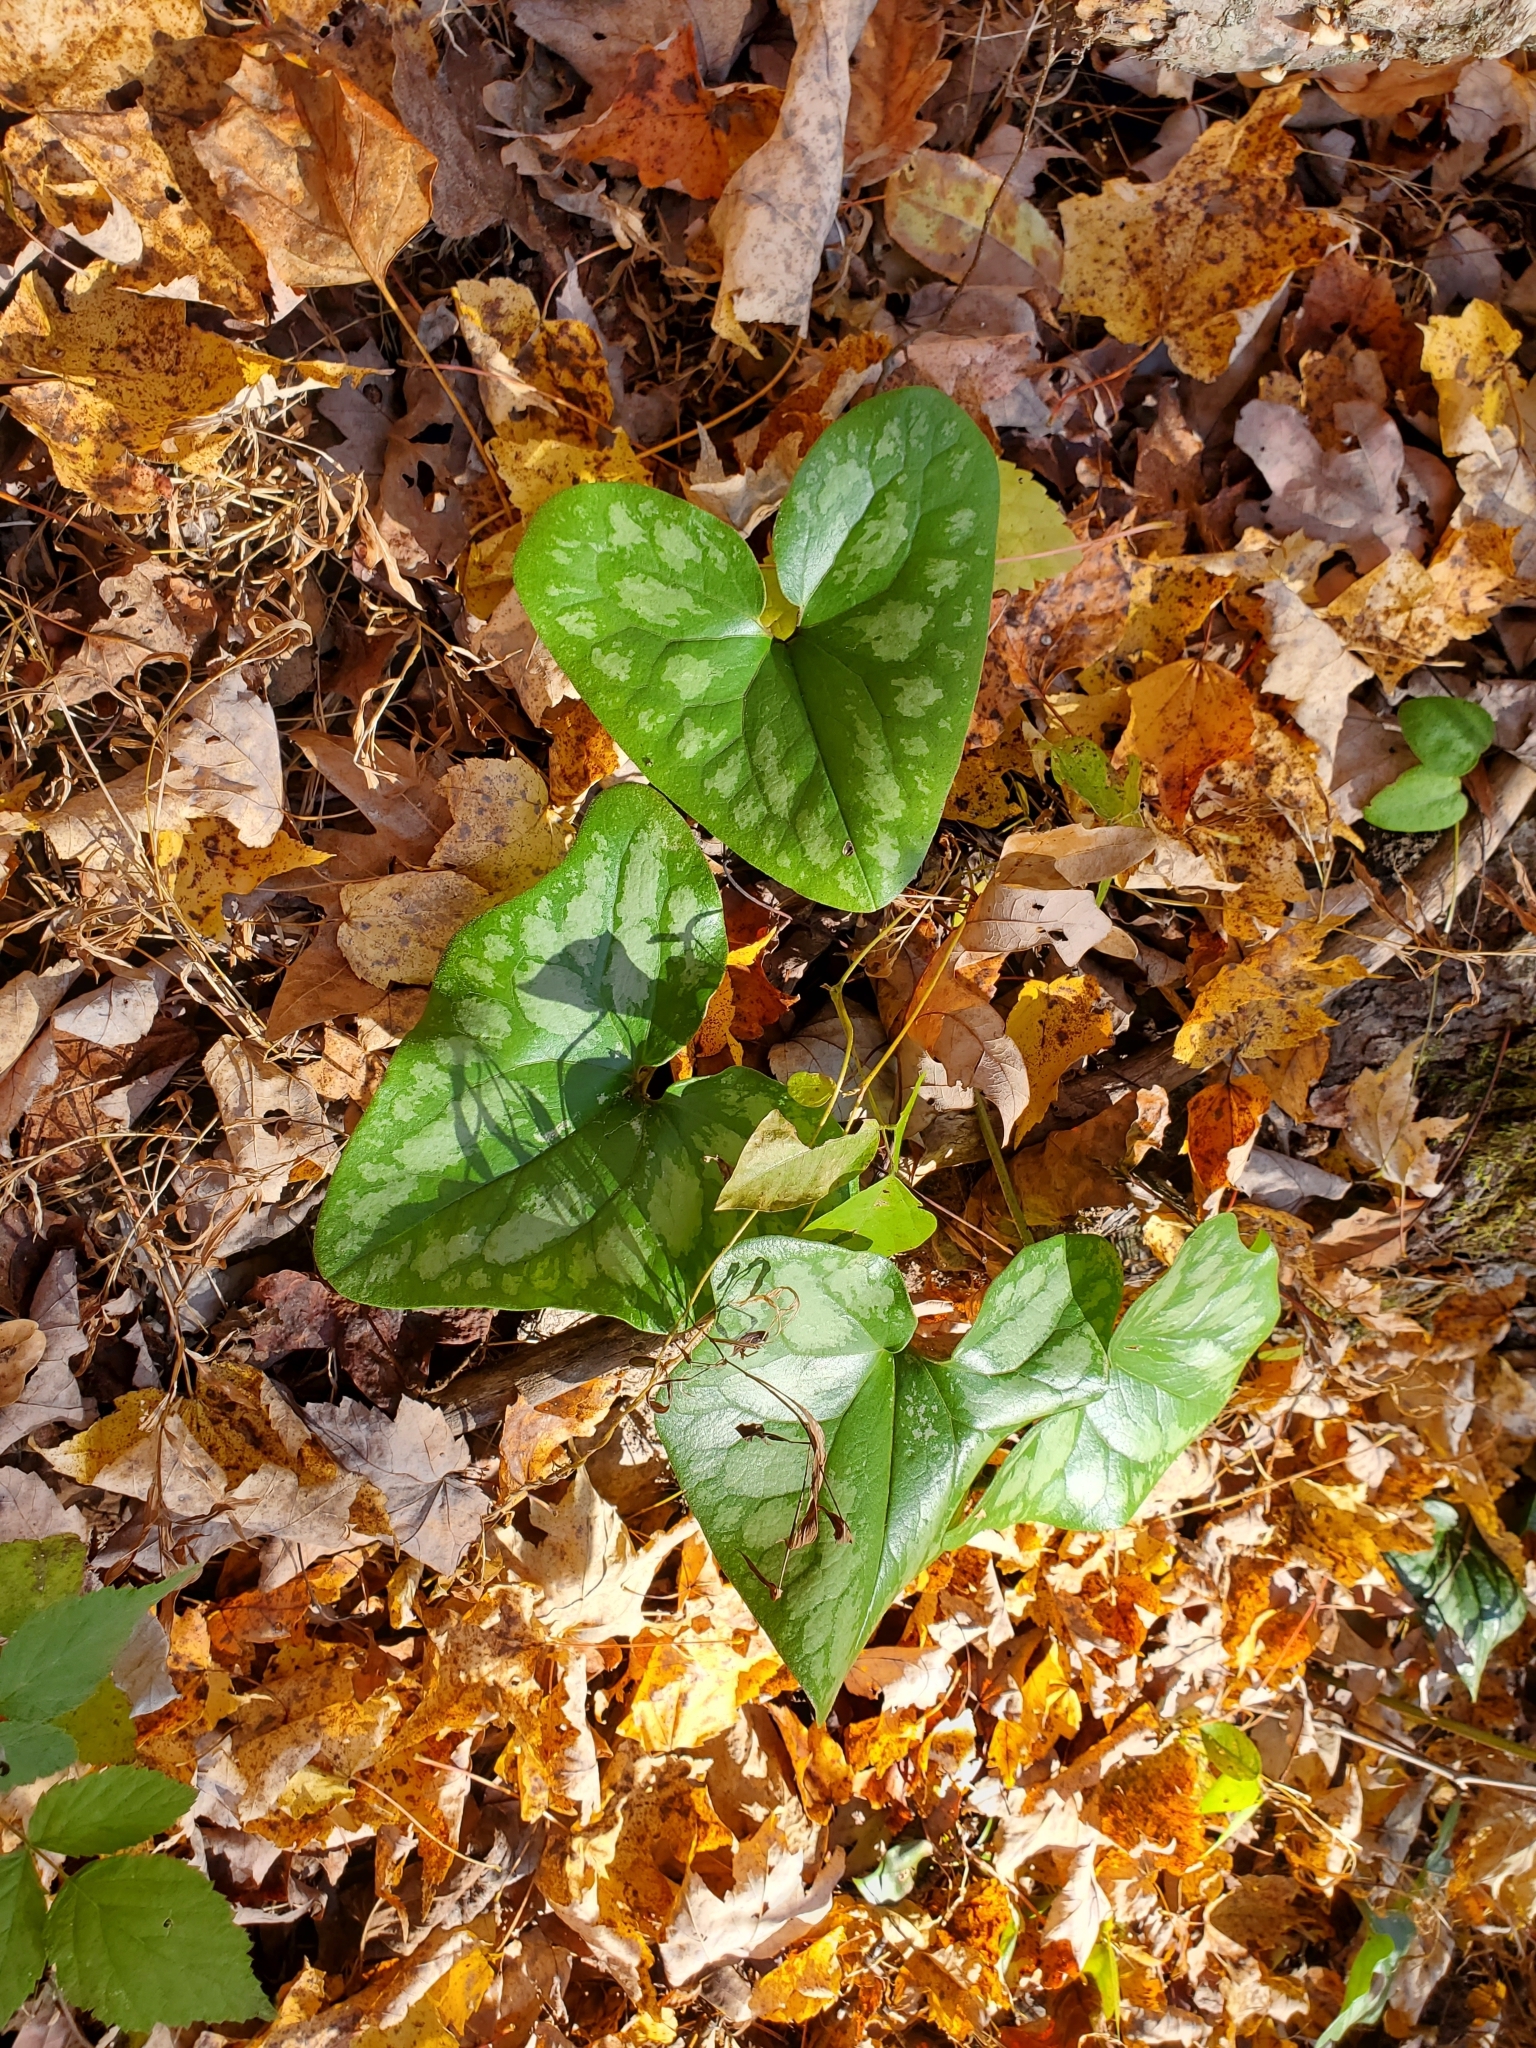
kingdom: Plantae
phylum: Tracheophyta
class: Magnoliopsida
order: Piperales
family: Aristolochiaceae
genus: Hexastylis
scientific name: Hexastylis arifolia
